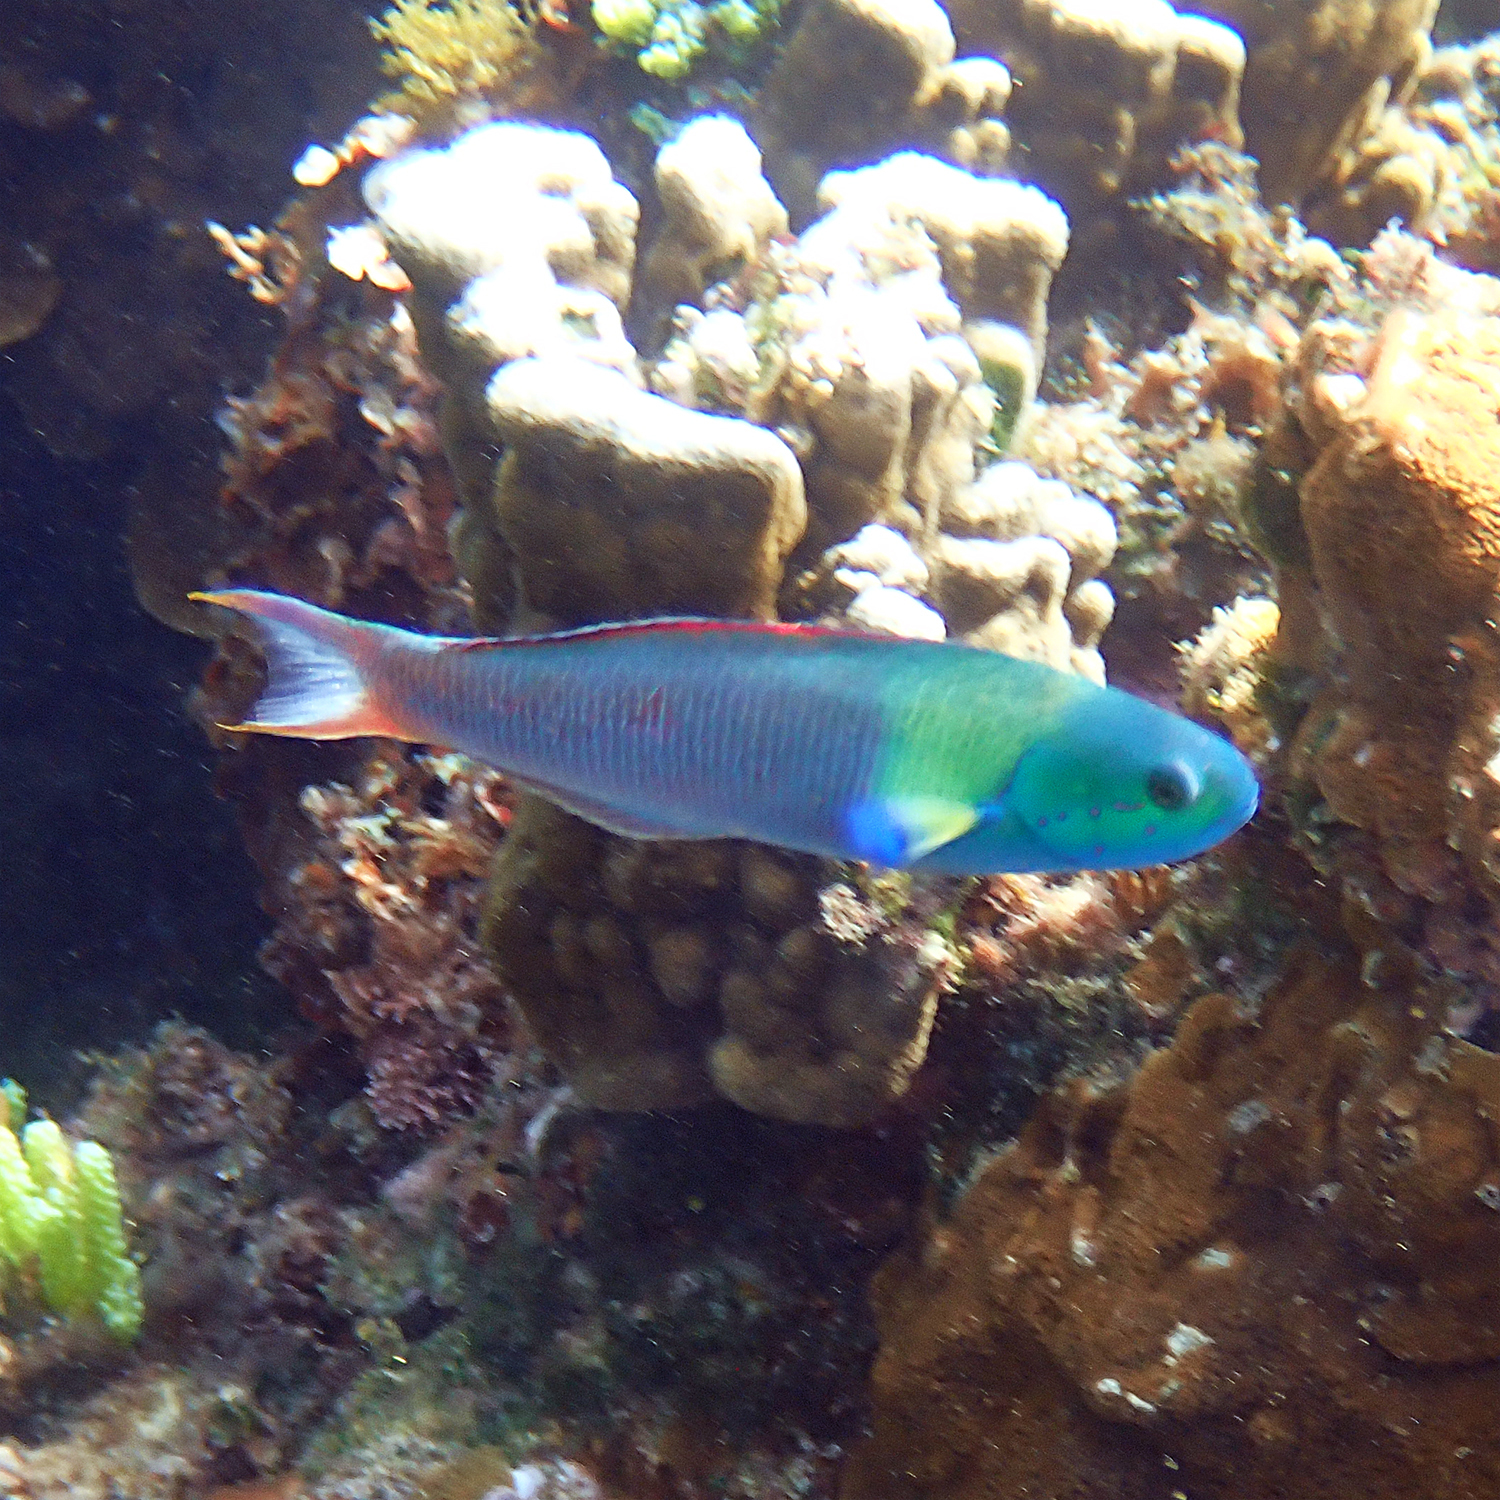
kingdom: Animalia
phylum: Chordata
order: Perciformes
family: Labridae
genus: Thalassoma
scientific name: Thalassoma amblycephalum
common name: Bluehead wrasse
